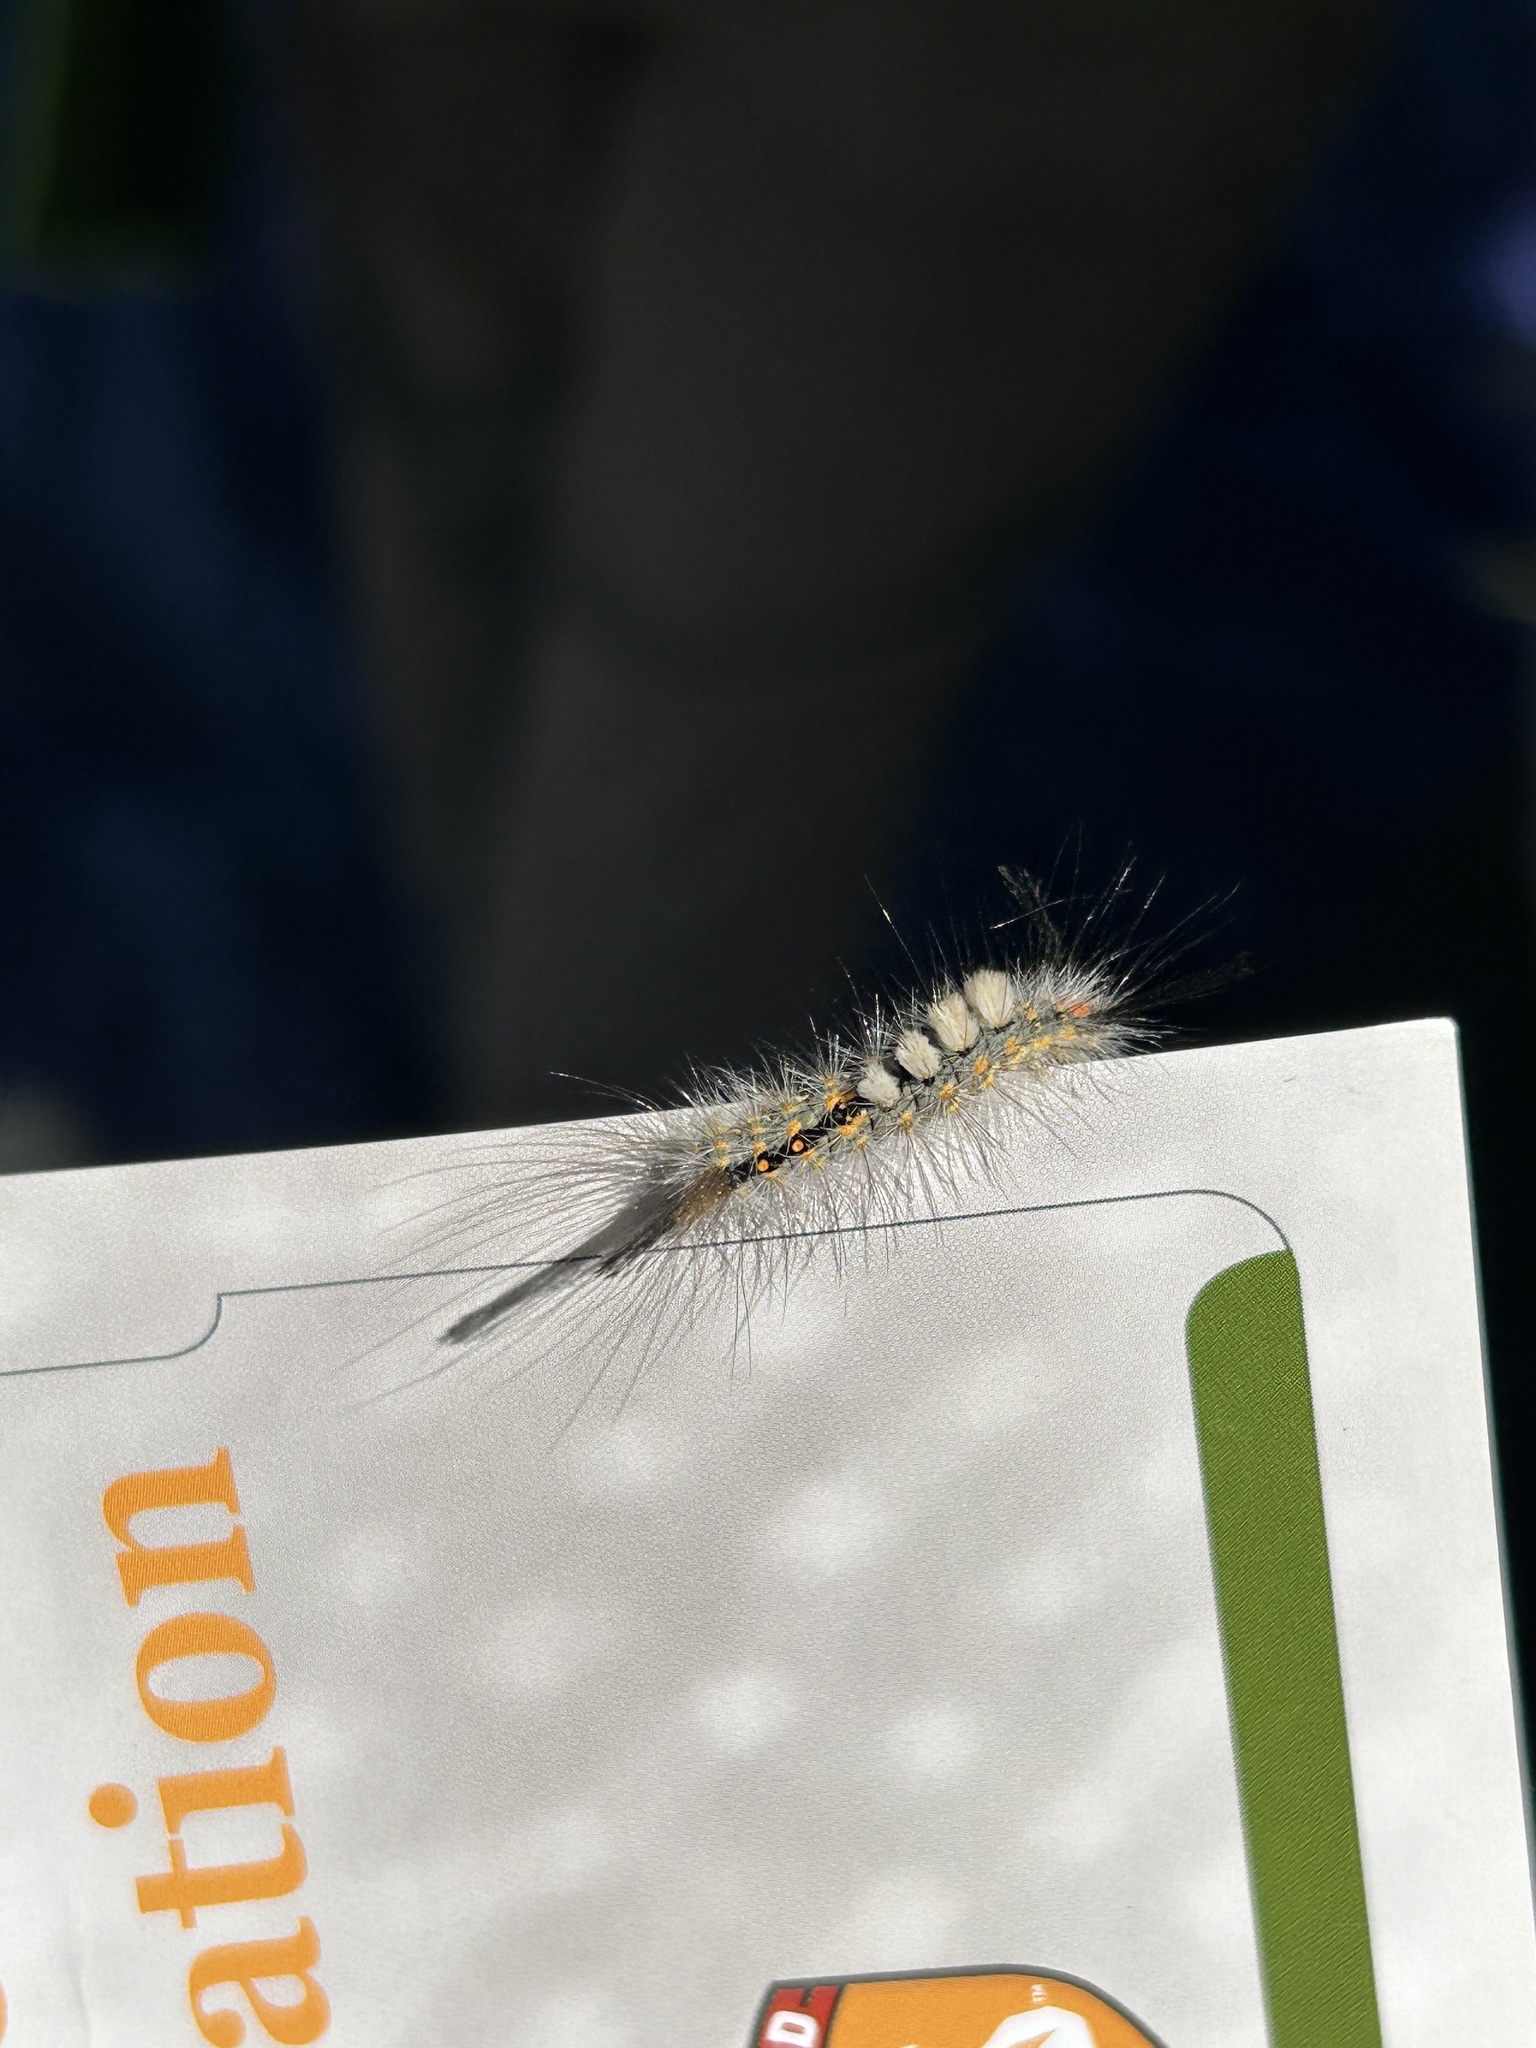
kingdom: Animalia
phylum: Arthropoda
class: Insecta
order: Lepidoptera
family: Erebidae
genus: Orgyia
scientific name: Orgyia detrita
